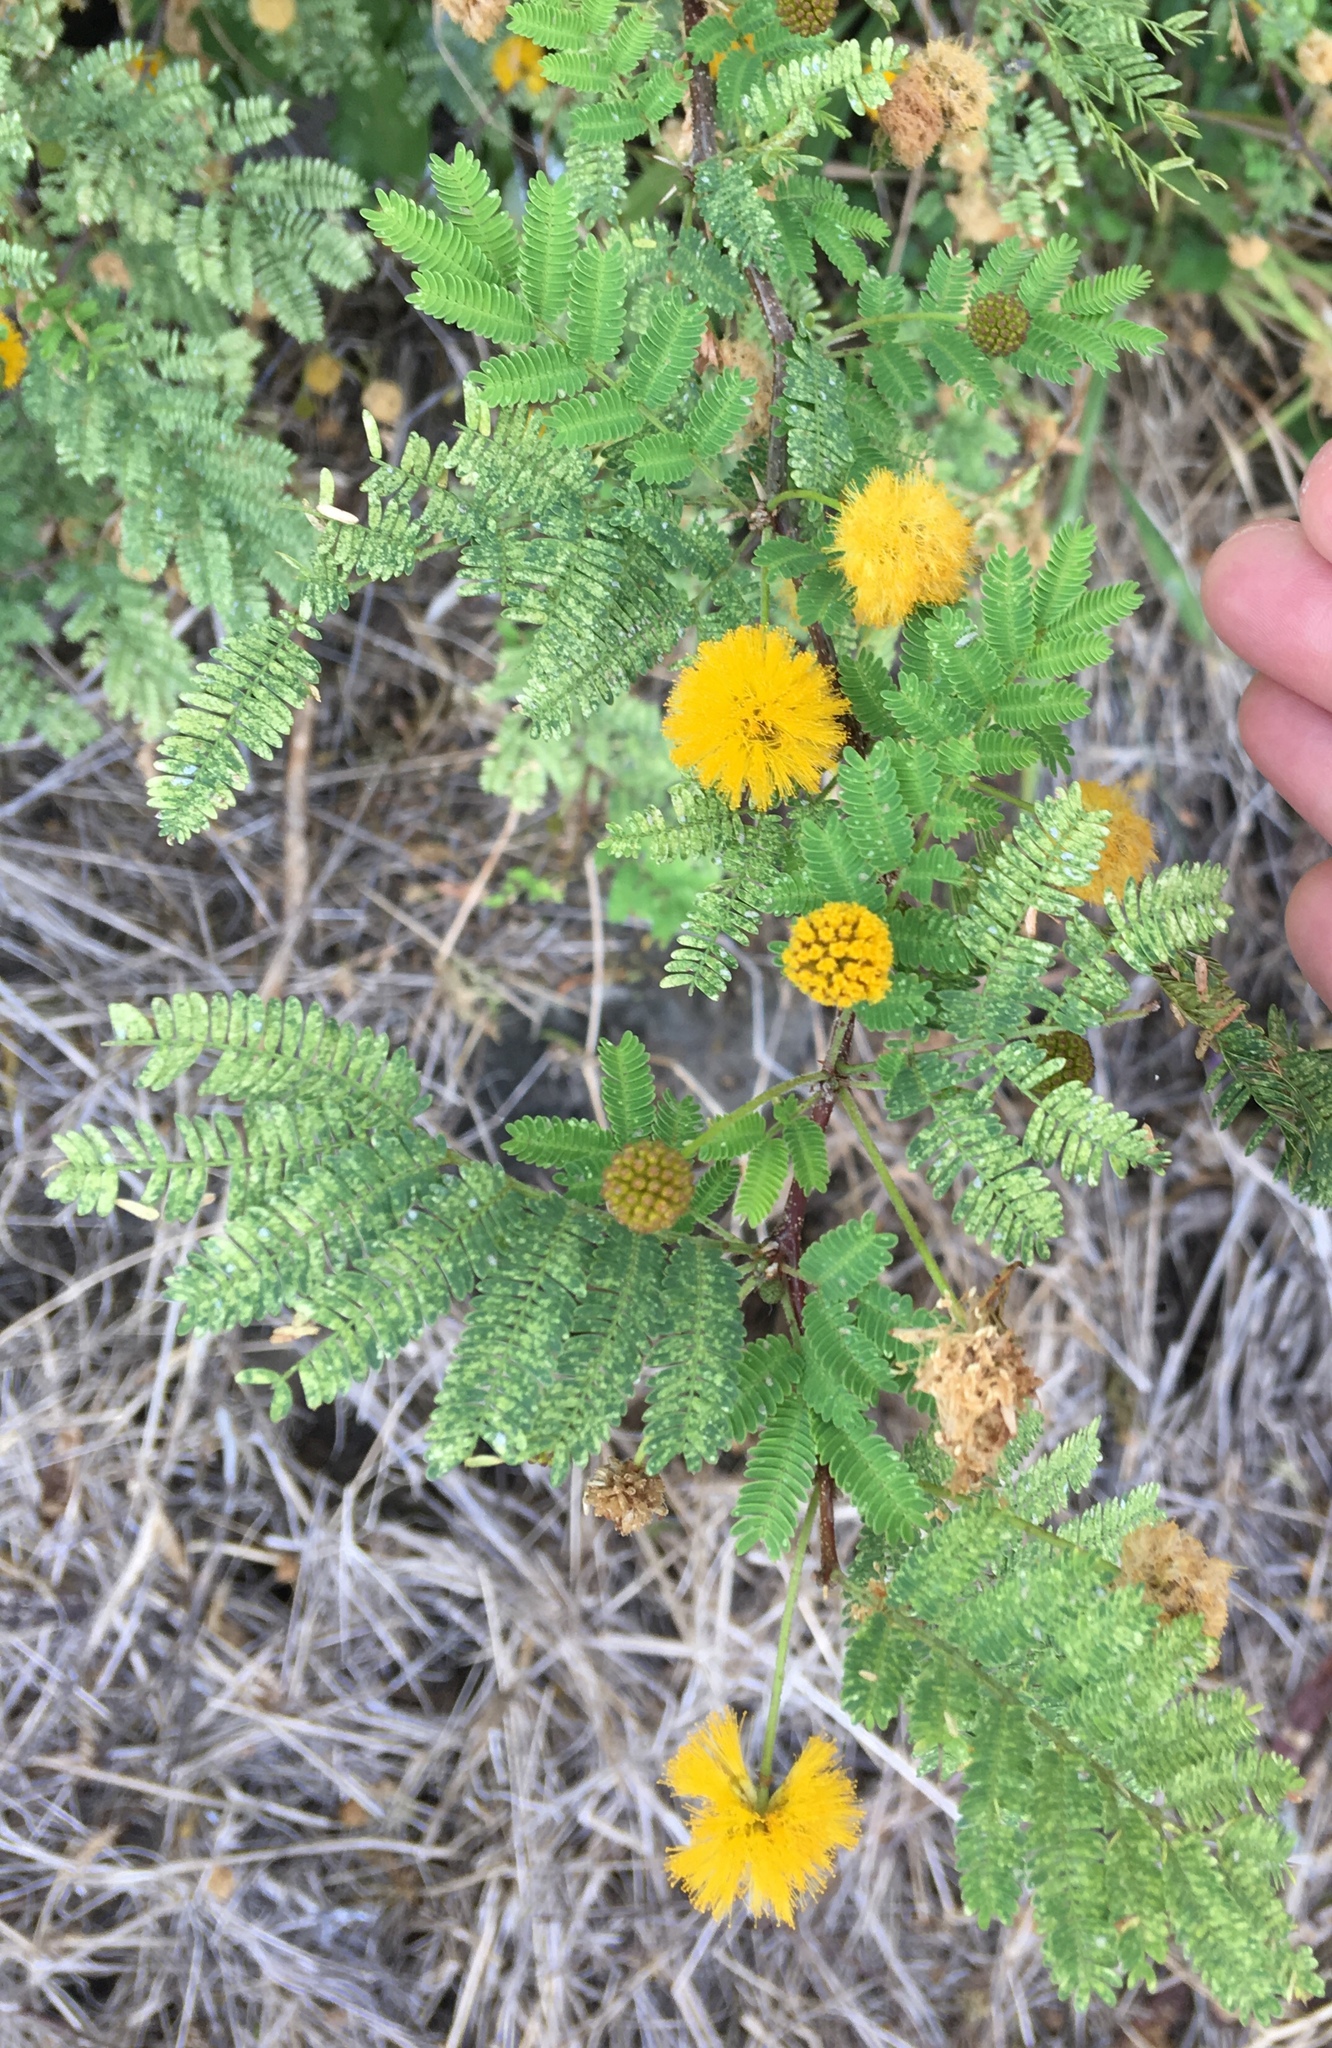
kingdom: Plantae
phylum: Tracheophyta
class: Magnoliopsida
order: Fabales
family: Fabaceae
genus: Vachellia
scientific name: Vachellia farnesiana
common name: Sweet acacia
